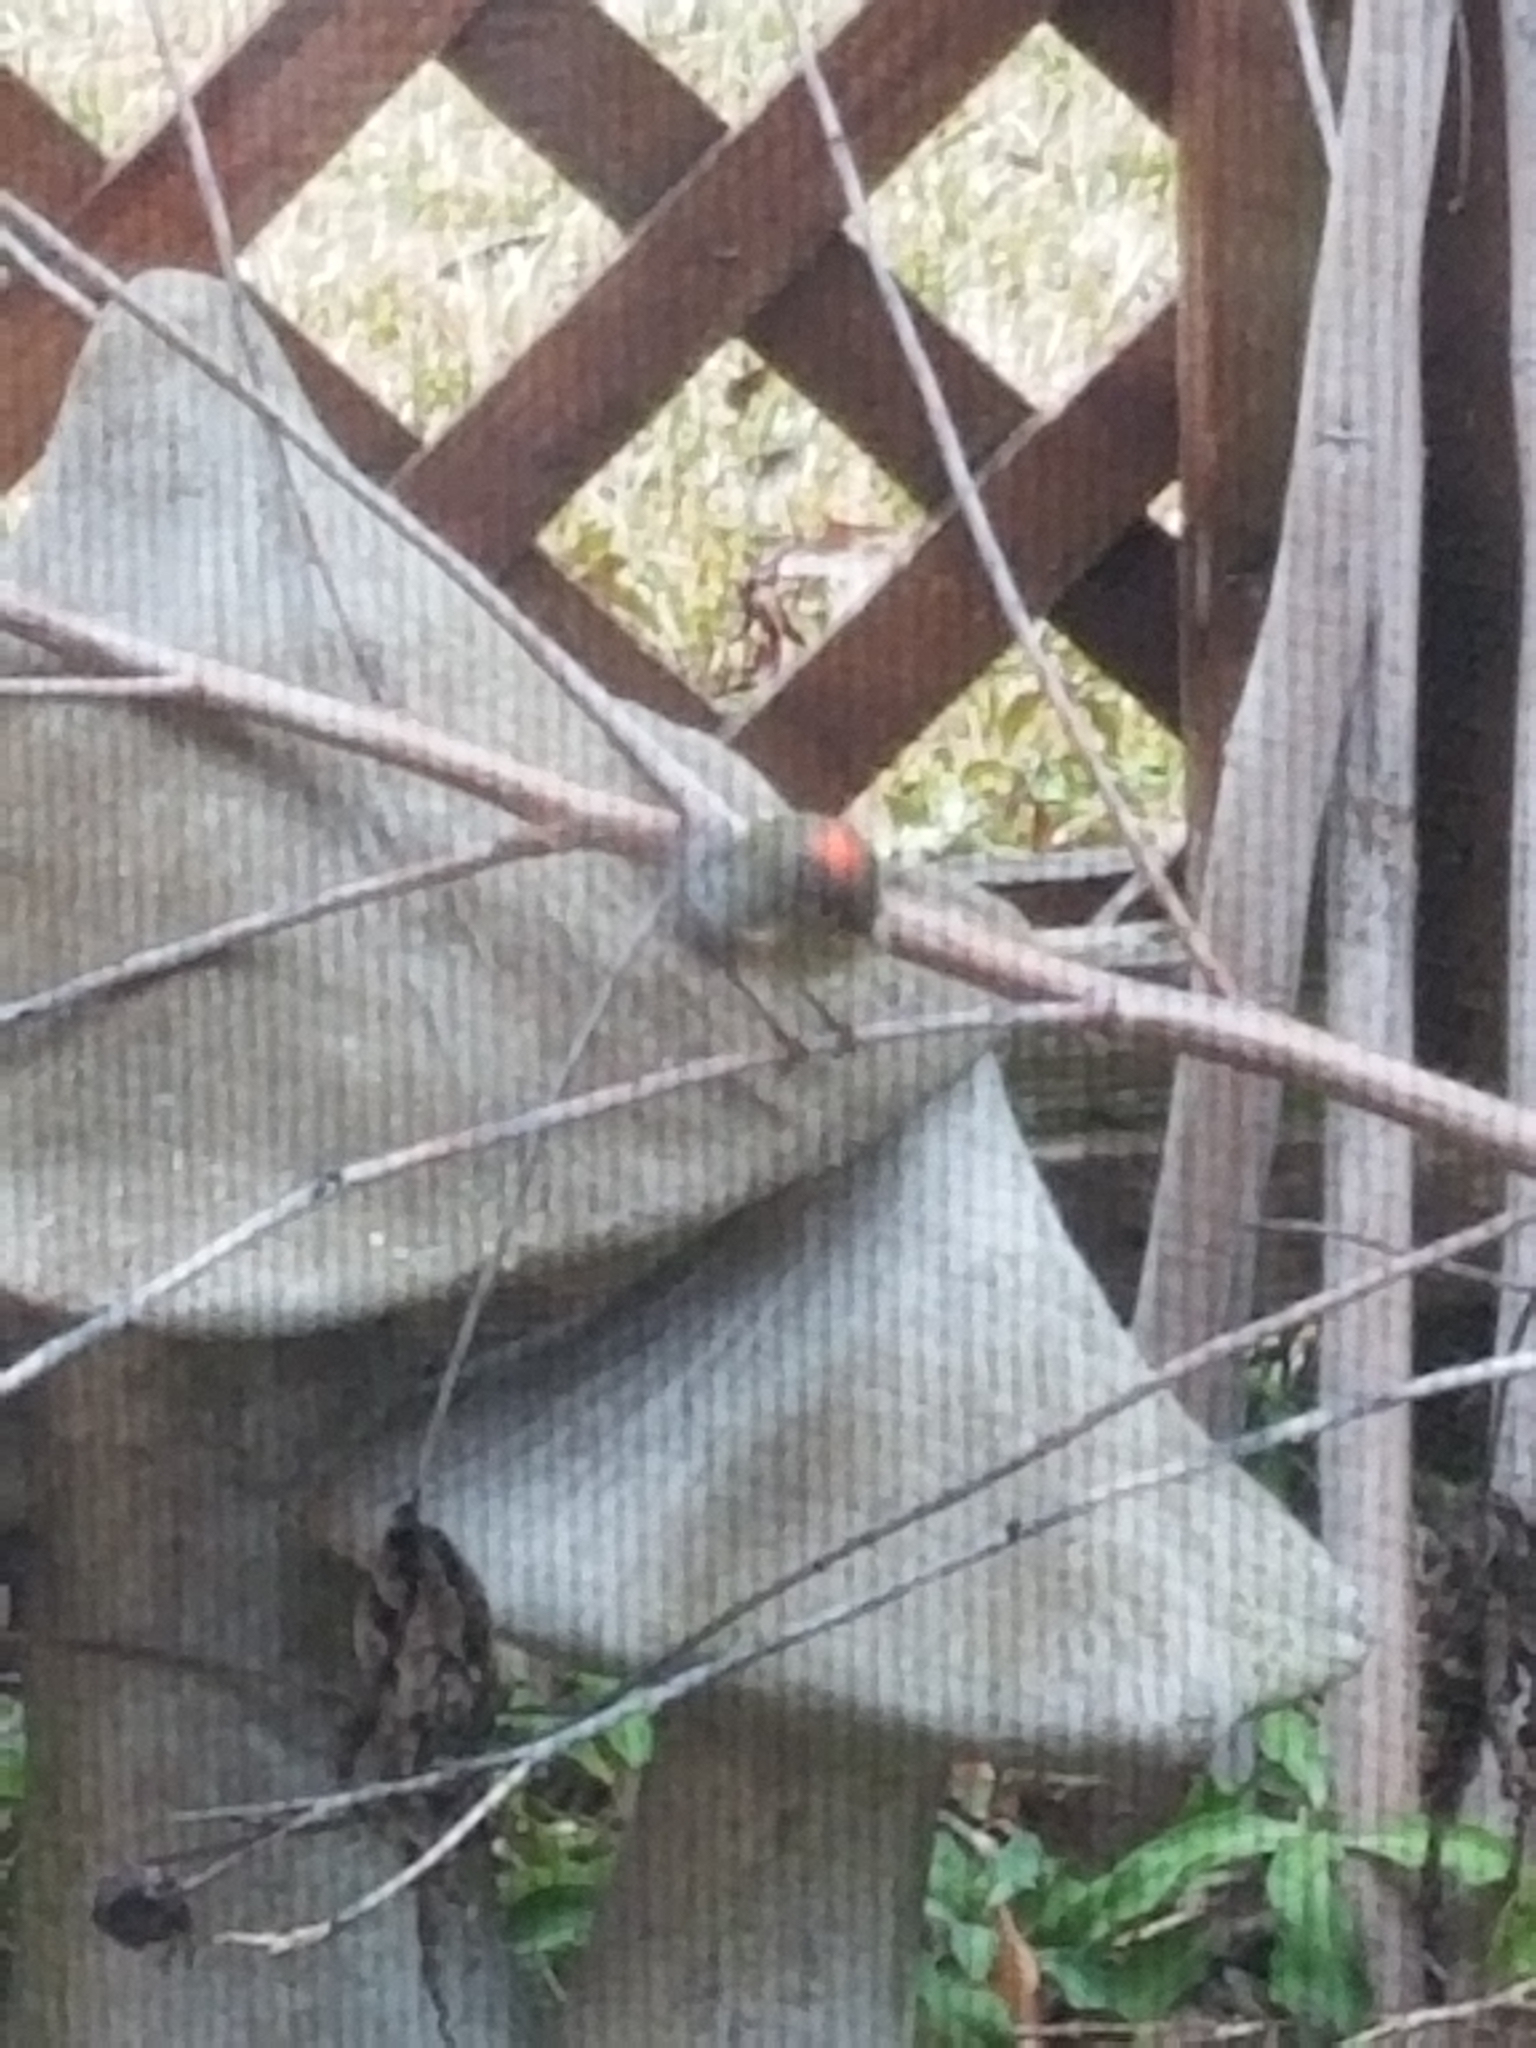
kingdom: Animalia
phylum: Chordata
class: Aves
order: Passeriformes
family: Regulidae
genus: Regulus
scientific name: Regulus calendula
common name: Ruby-crowned kinglet
